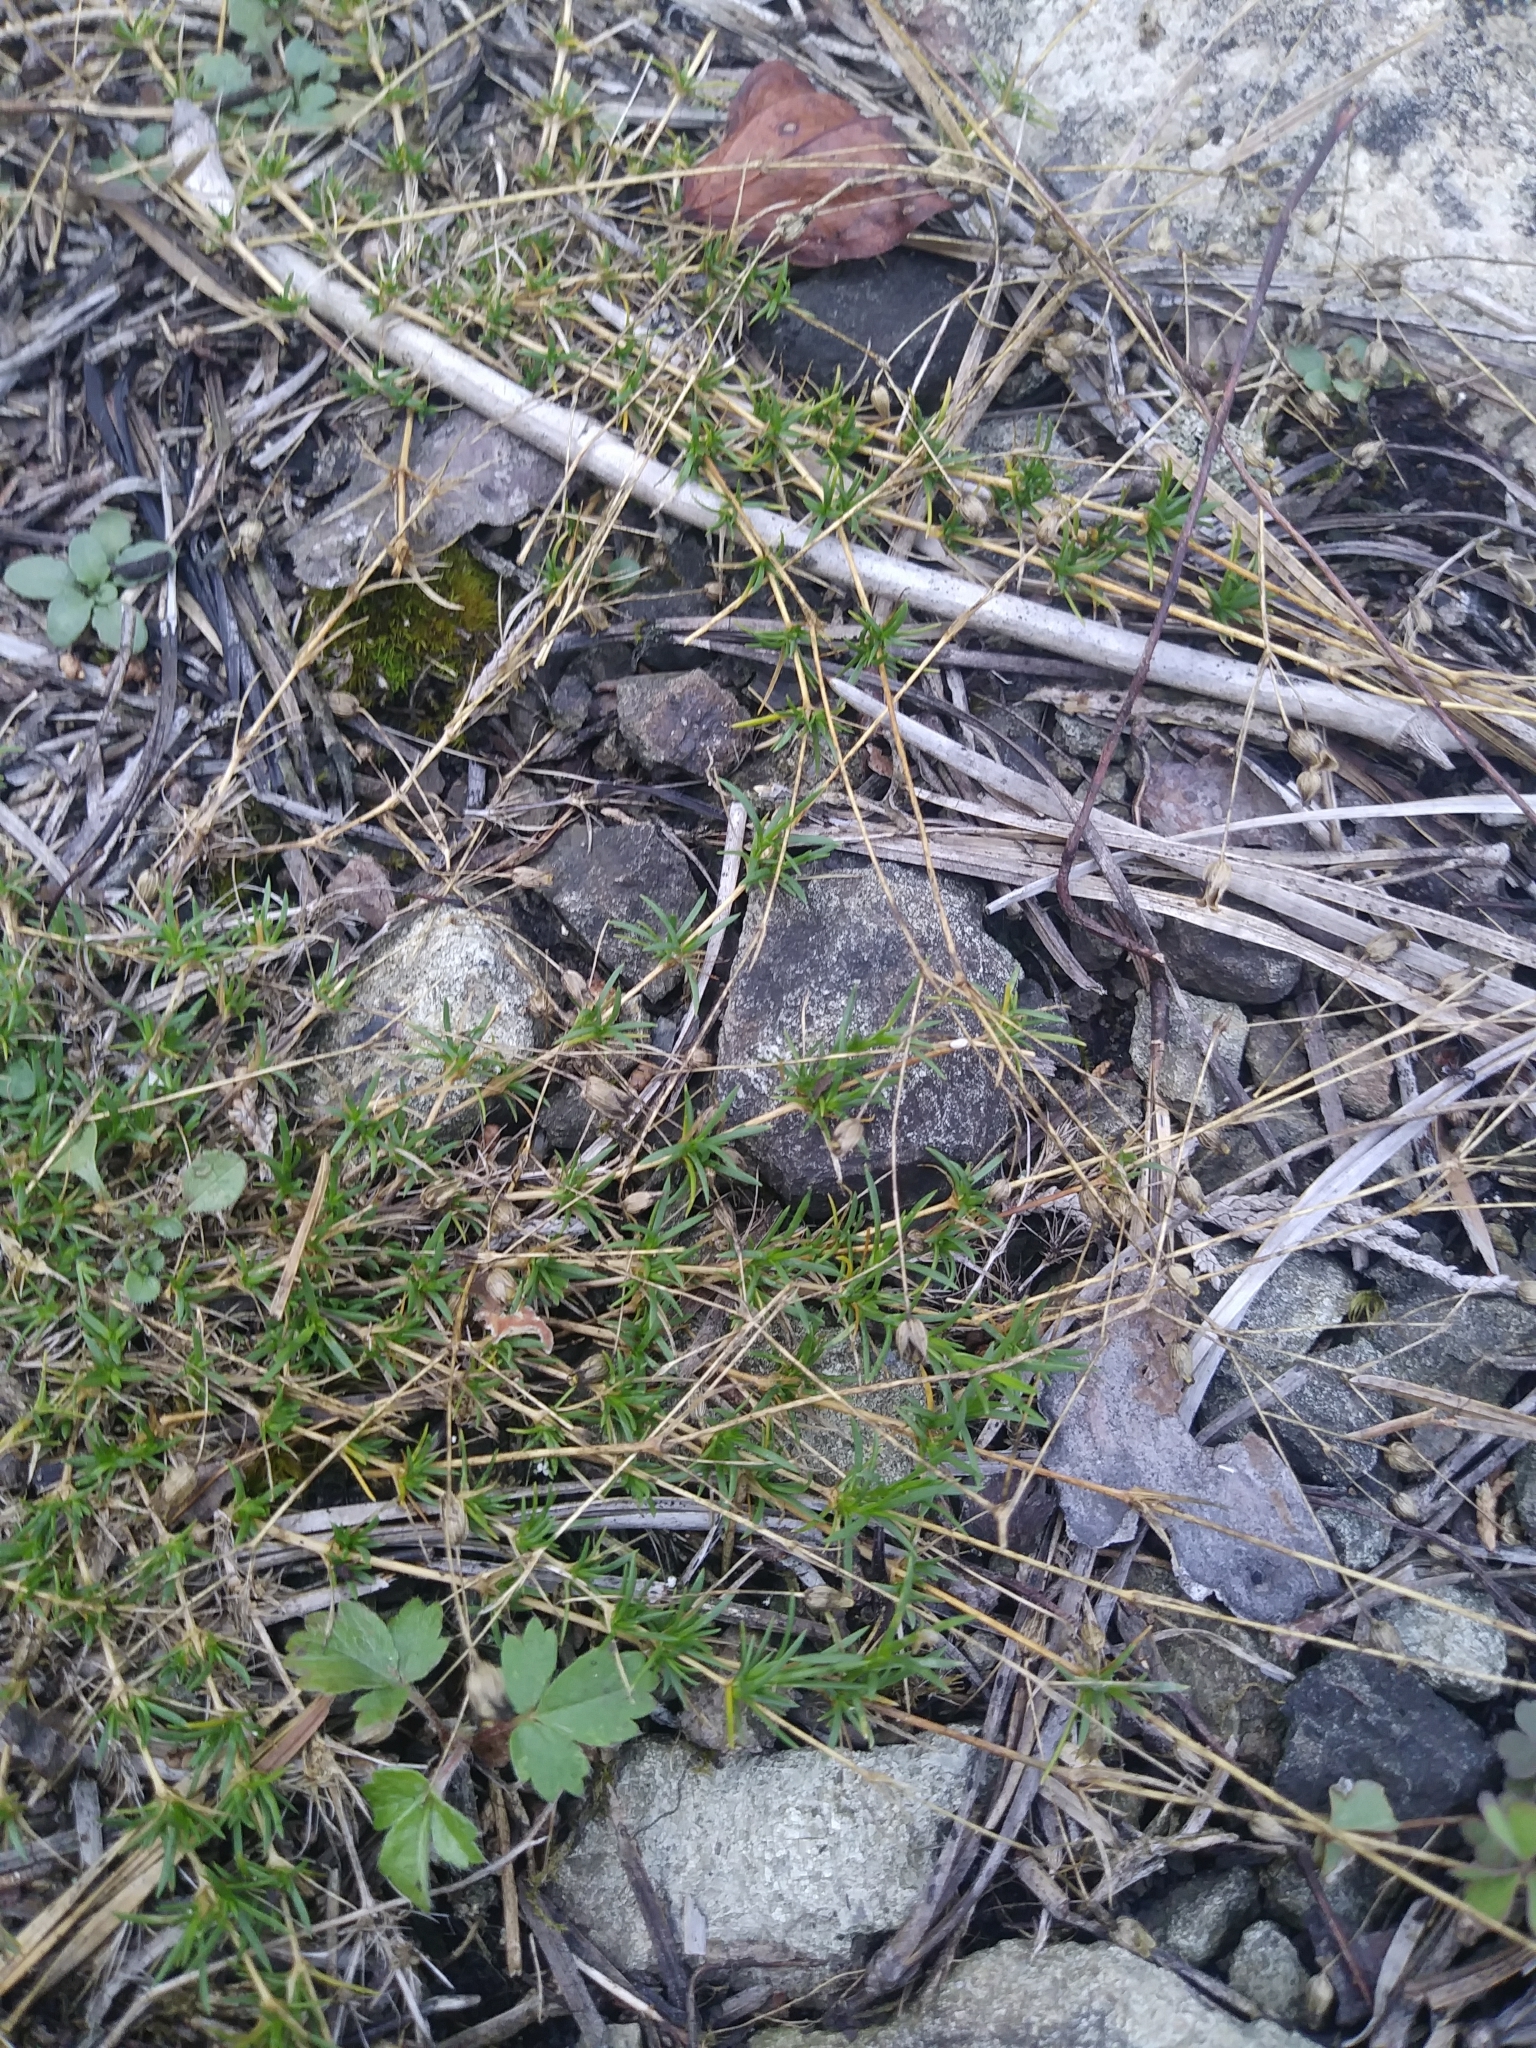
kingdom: Plantae
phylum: Tracheophyta
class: Magnoliopsida
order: Caryophyllales
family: Caryophyllaceae
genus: Sabulina
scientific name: Sabulina michauxii
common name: Michaux's stitchwort
